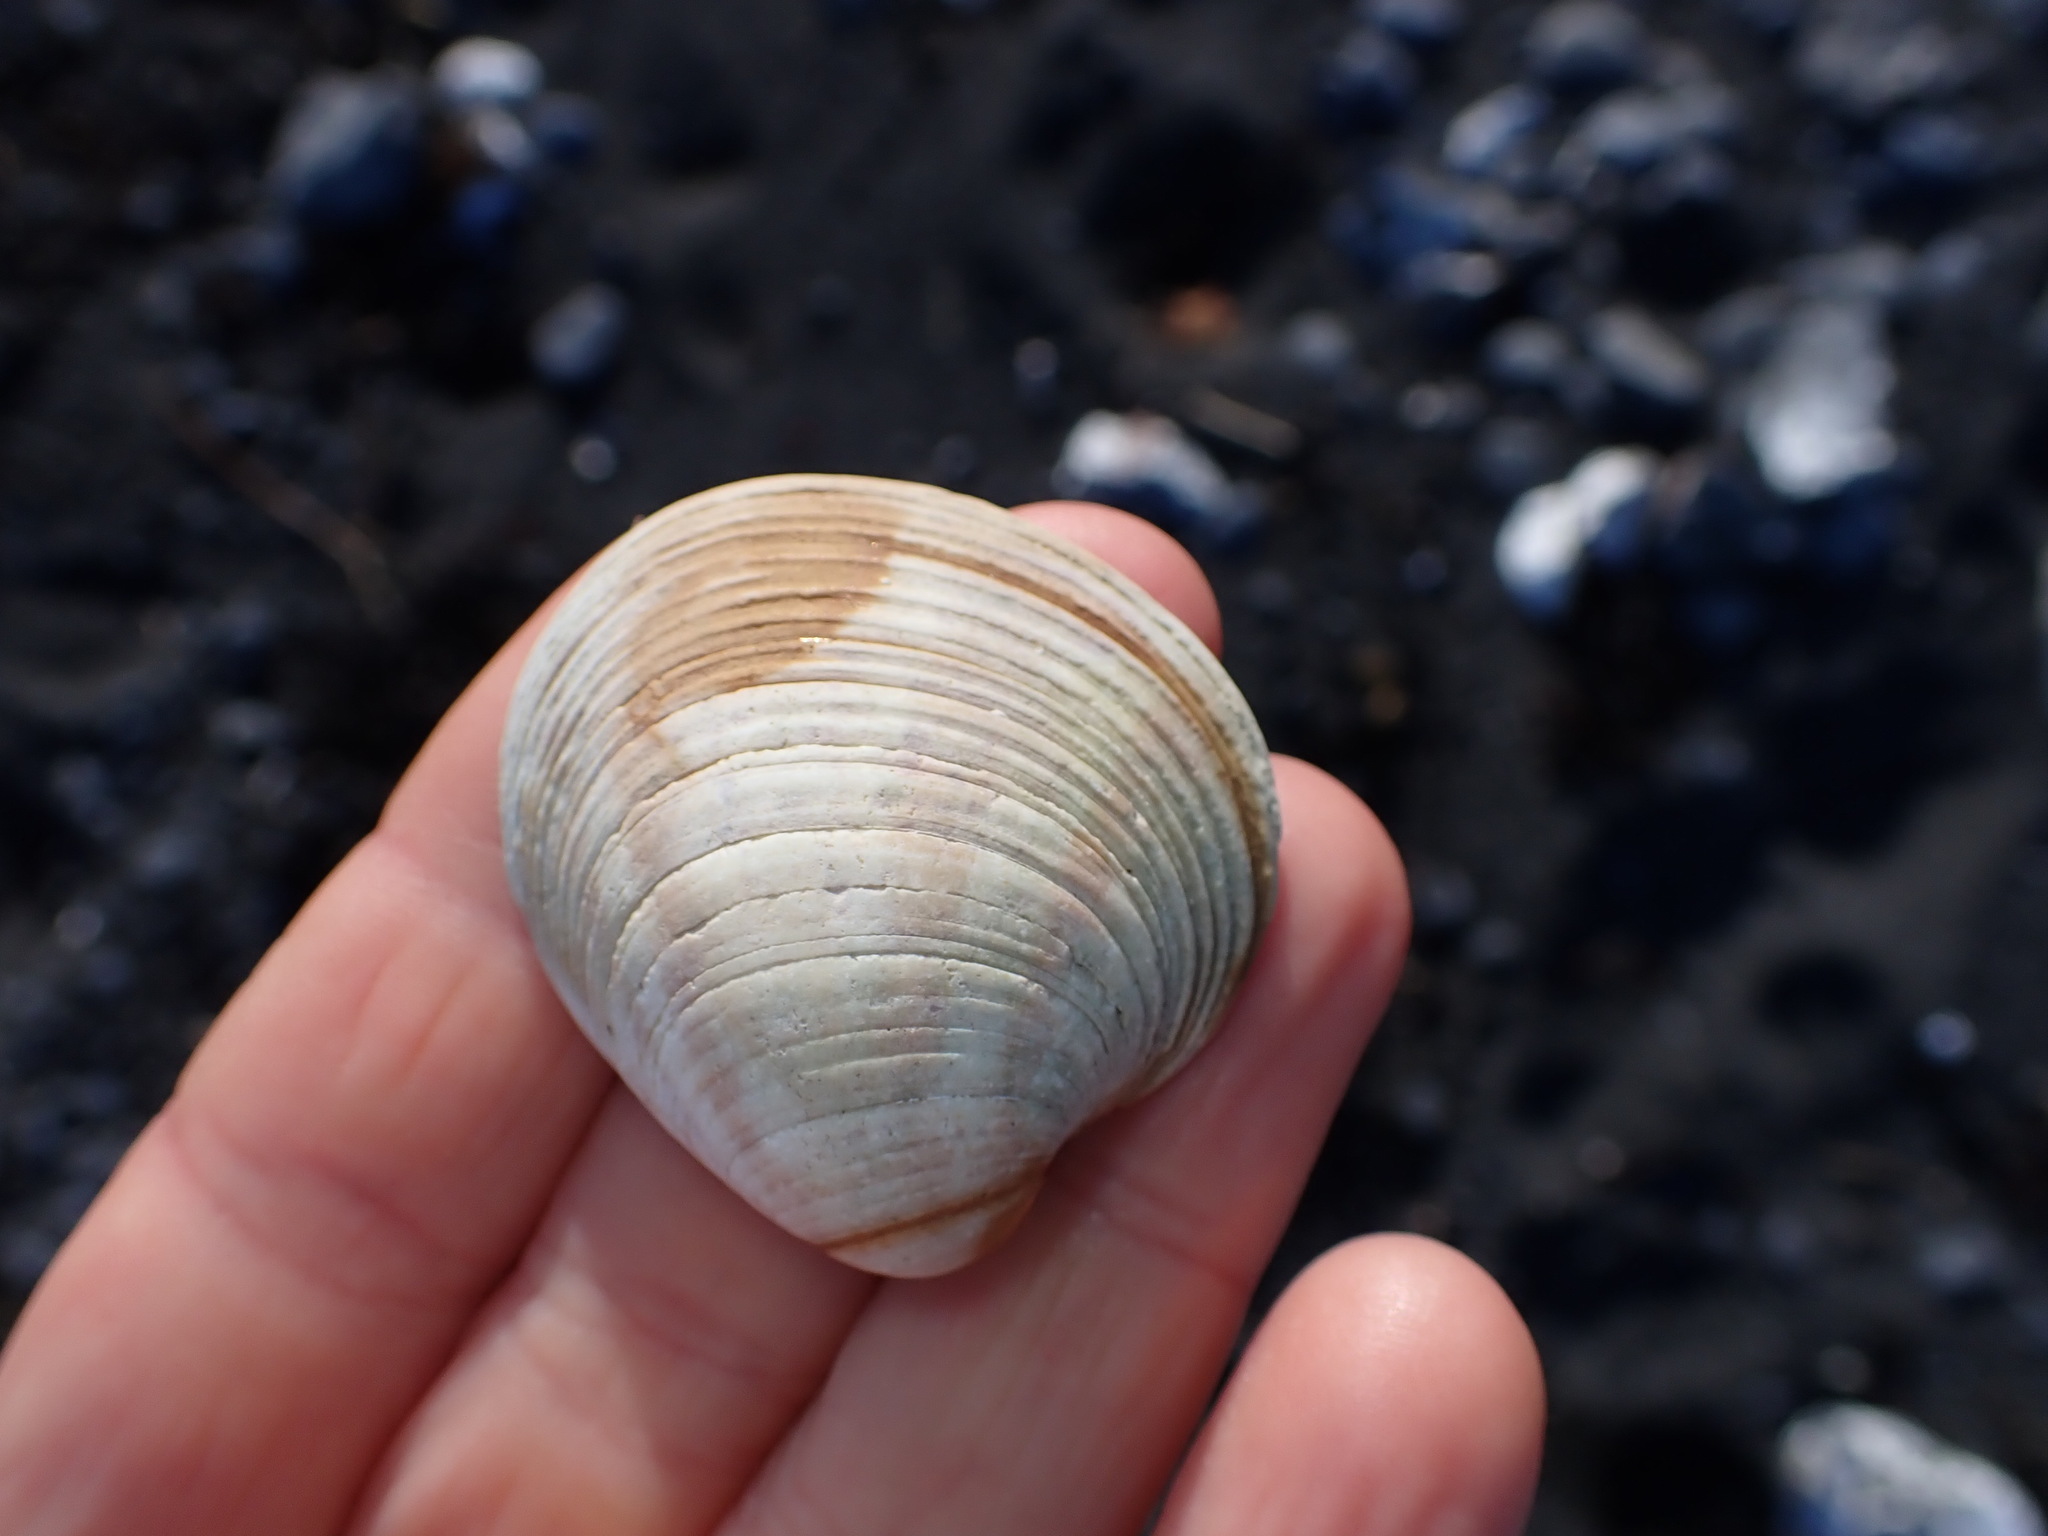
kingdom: Animalia
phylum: Mollusca
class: Bivalvia
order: Venerida
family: Veneridae
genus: Dosina
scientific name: Dosina mactracea
